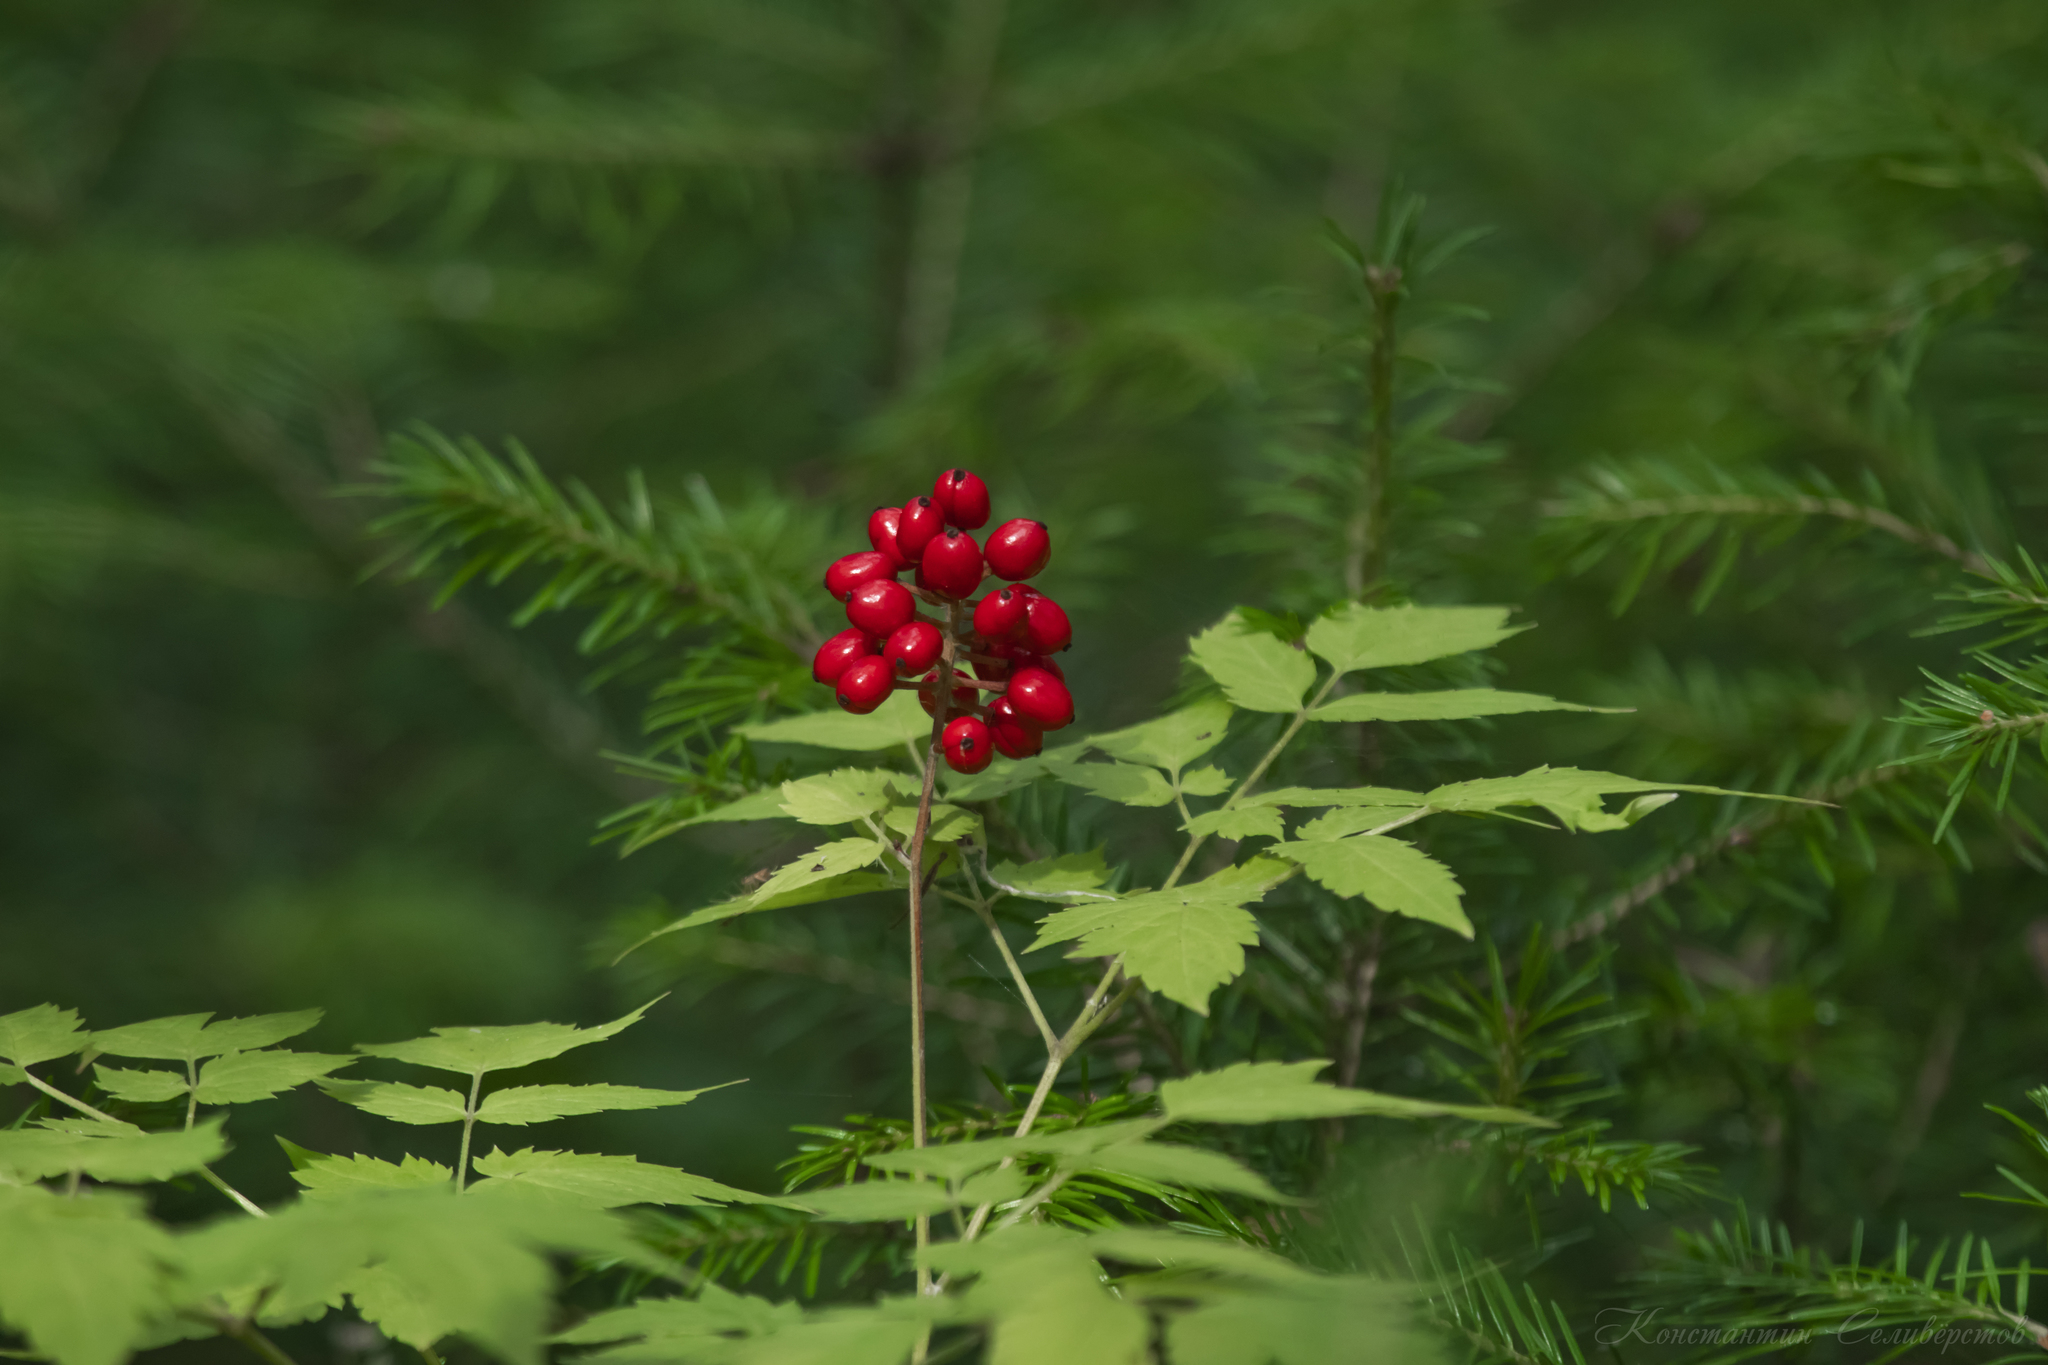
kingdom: Plantae
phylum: Tracheophyta
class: Magnoliopsida
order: Ranunculales
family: Ranunculaceae
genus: Actaea
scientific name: Actaea erythrocarpa
